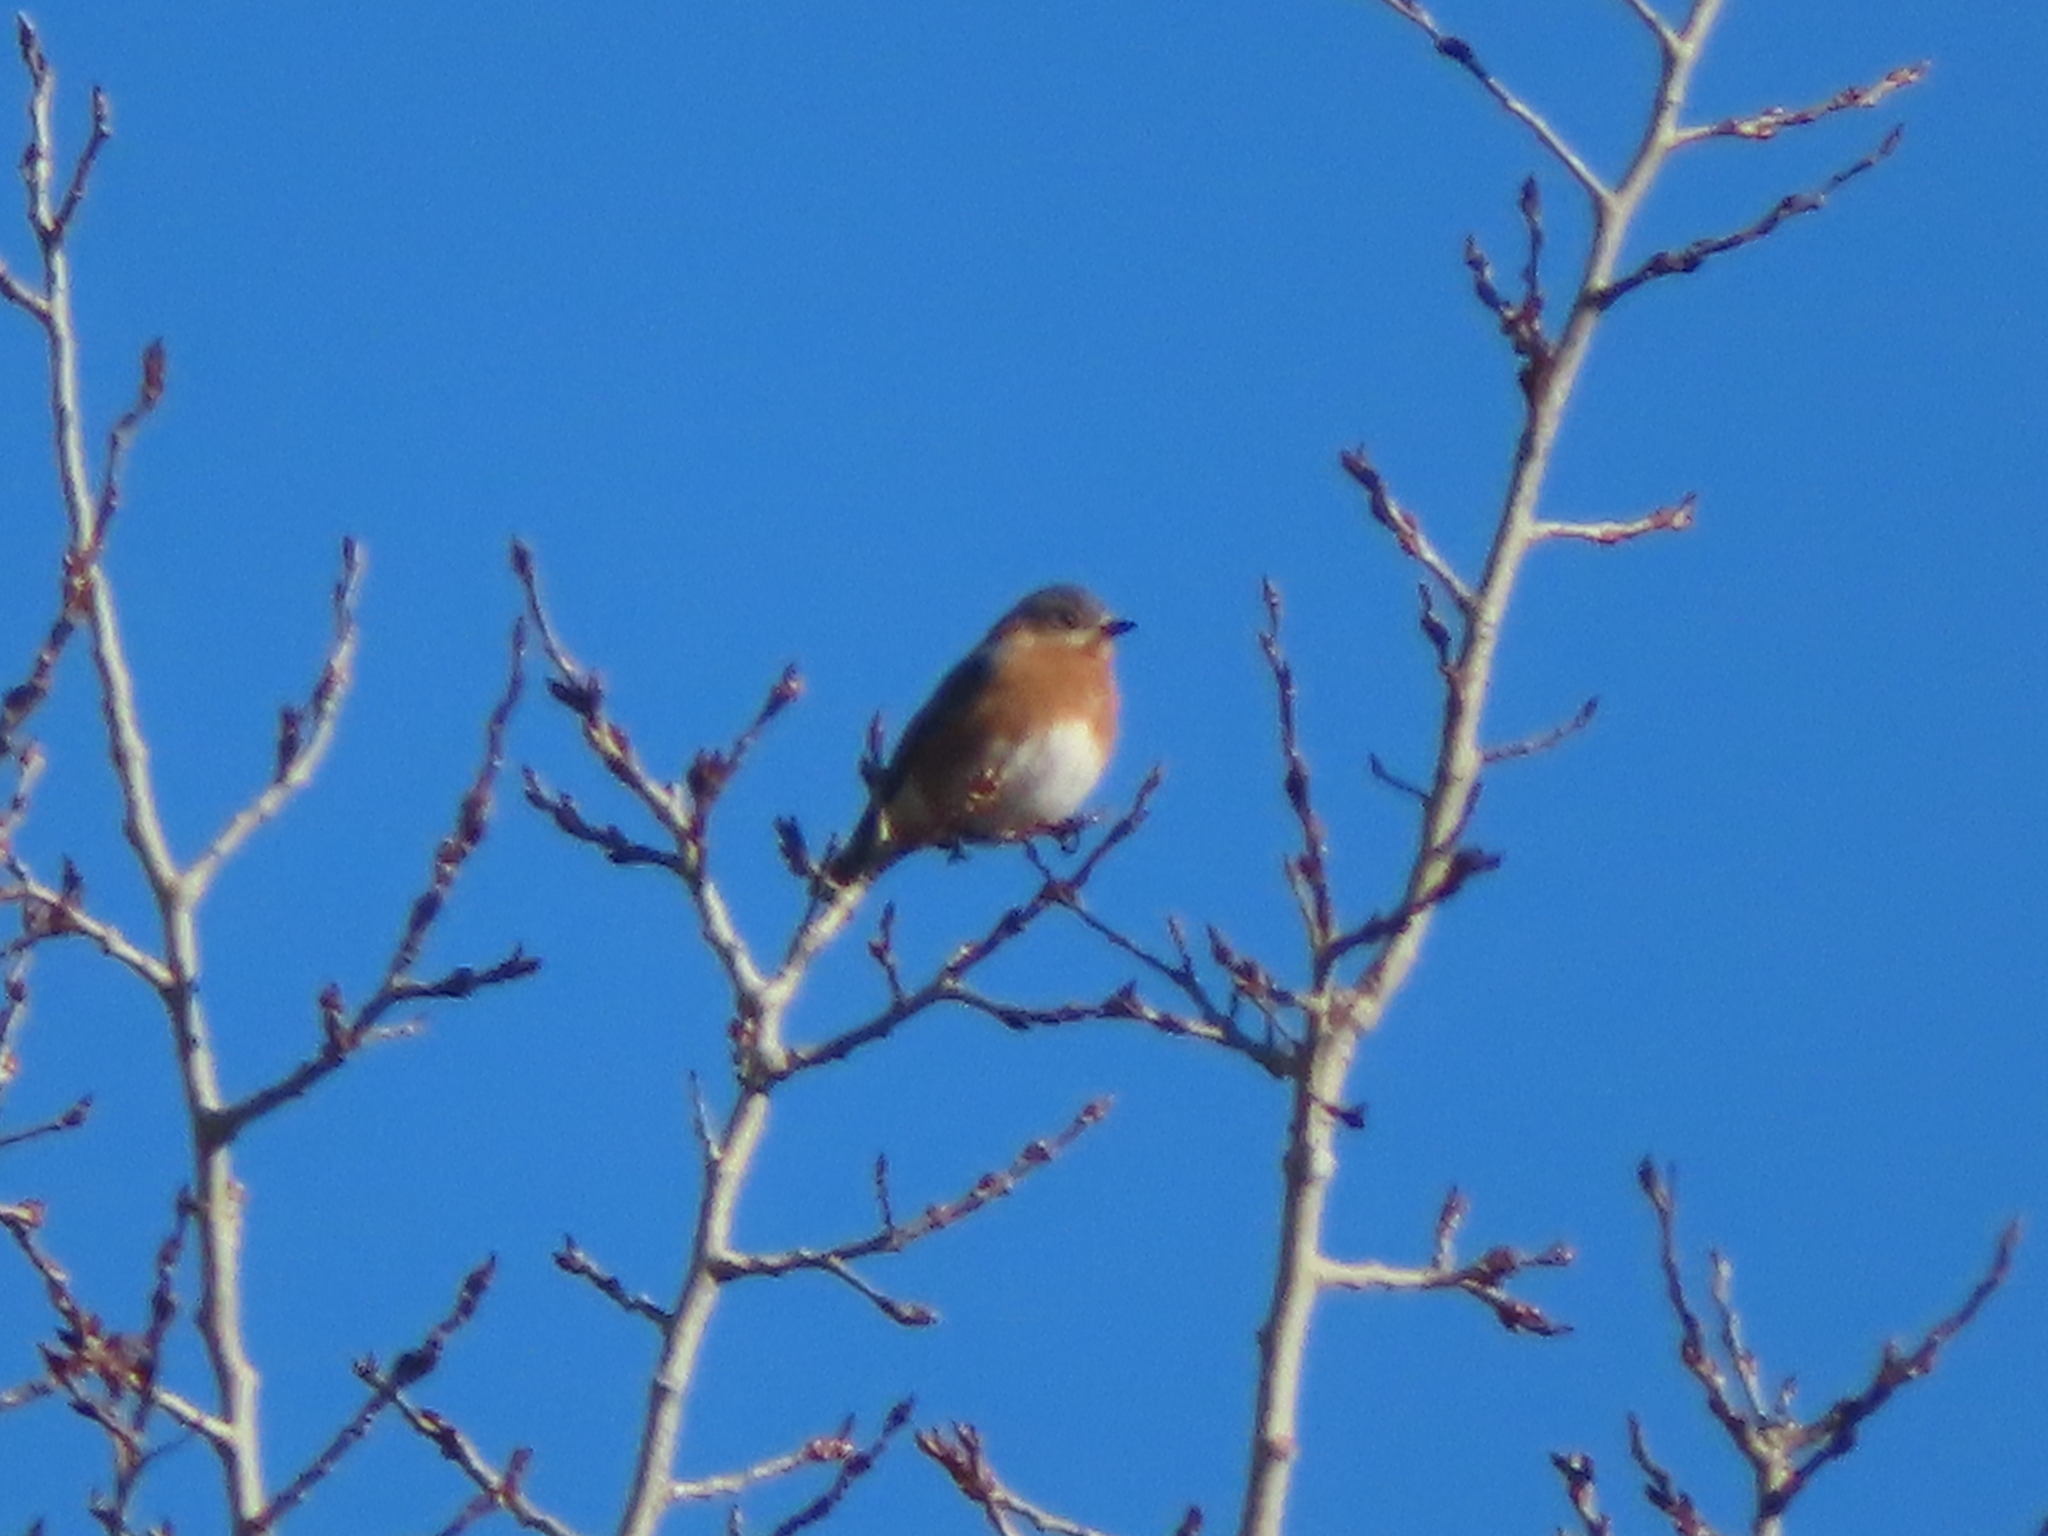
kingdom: Animalia
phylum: Chordata
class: Aves
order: Passeriformes
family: Turdidae
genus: Sialia
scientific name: Sialia sialis
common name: Eastern bluebird
